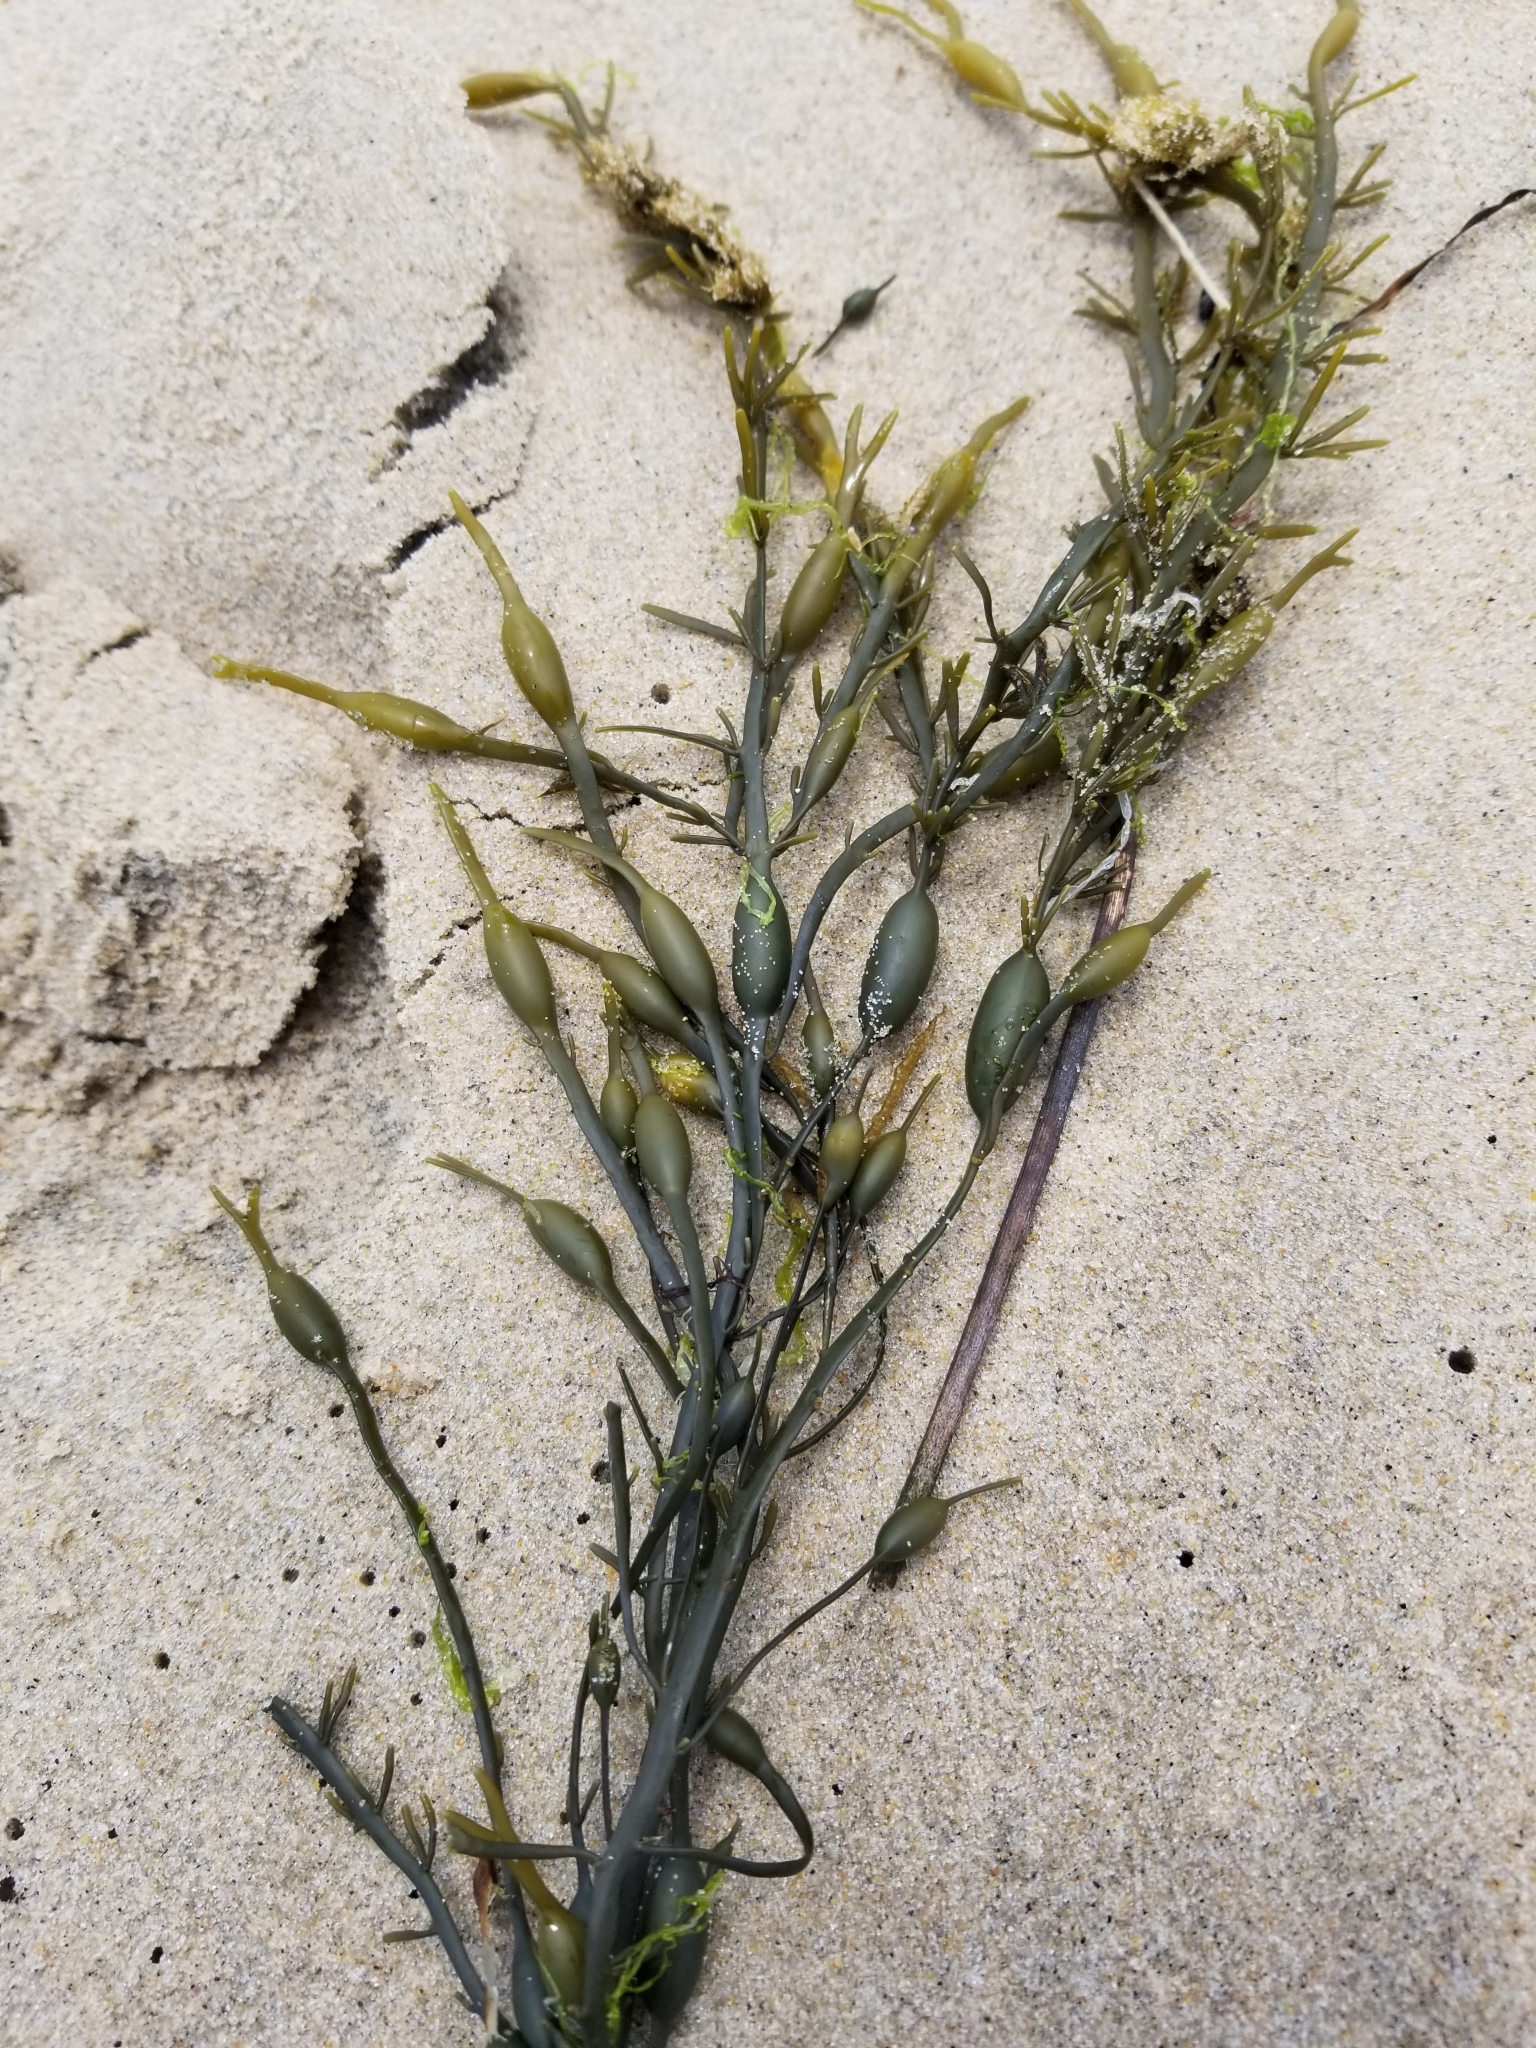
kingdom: Chromista
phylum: Ochrophyta
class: Phaeophyceae
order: Fucales
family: Fucaceae
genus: Ascophyllum
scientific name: Ascophyllum nodosum
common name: Knotted wrack
